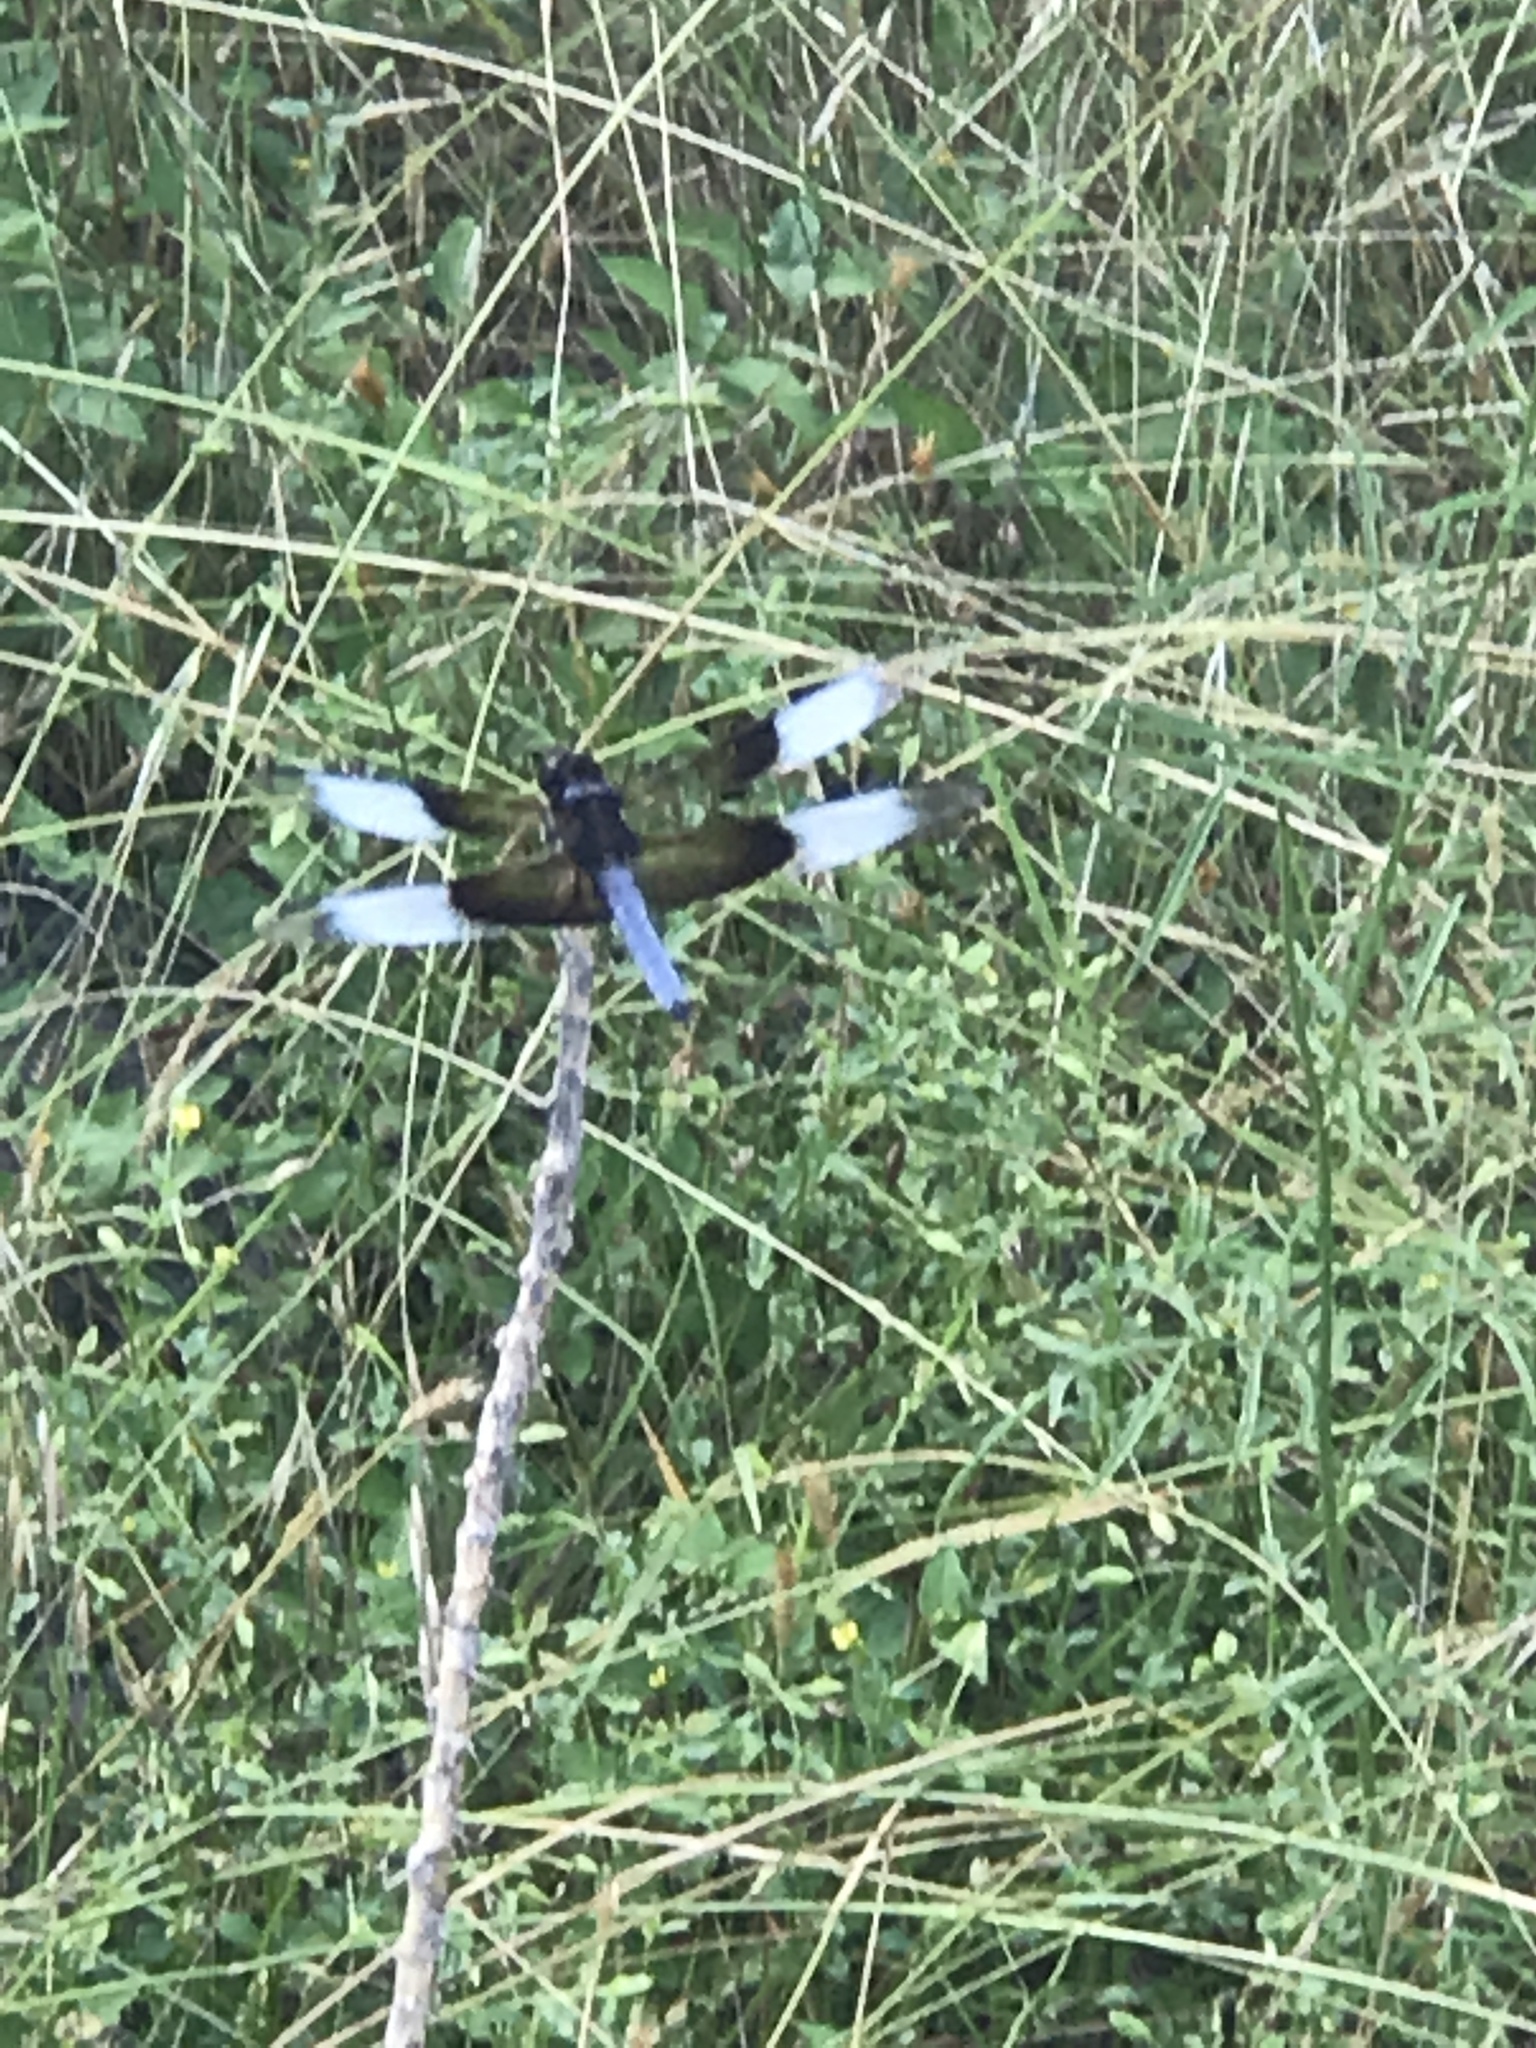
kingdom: Animalia
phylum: Arthropoda
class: Insecta
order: Odonata
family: Libellulidae
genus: Libellula
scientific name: Libellula luctuosa
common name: Widow skimmer
